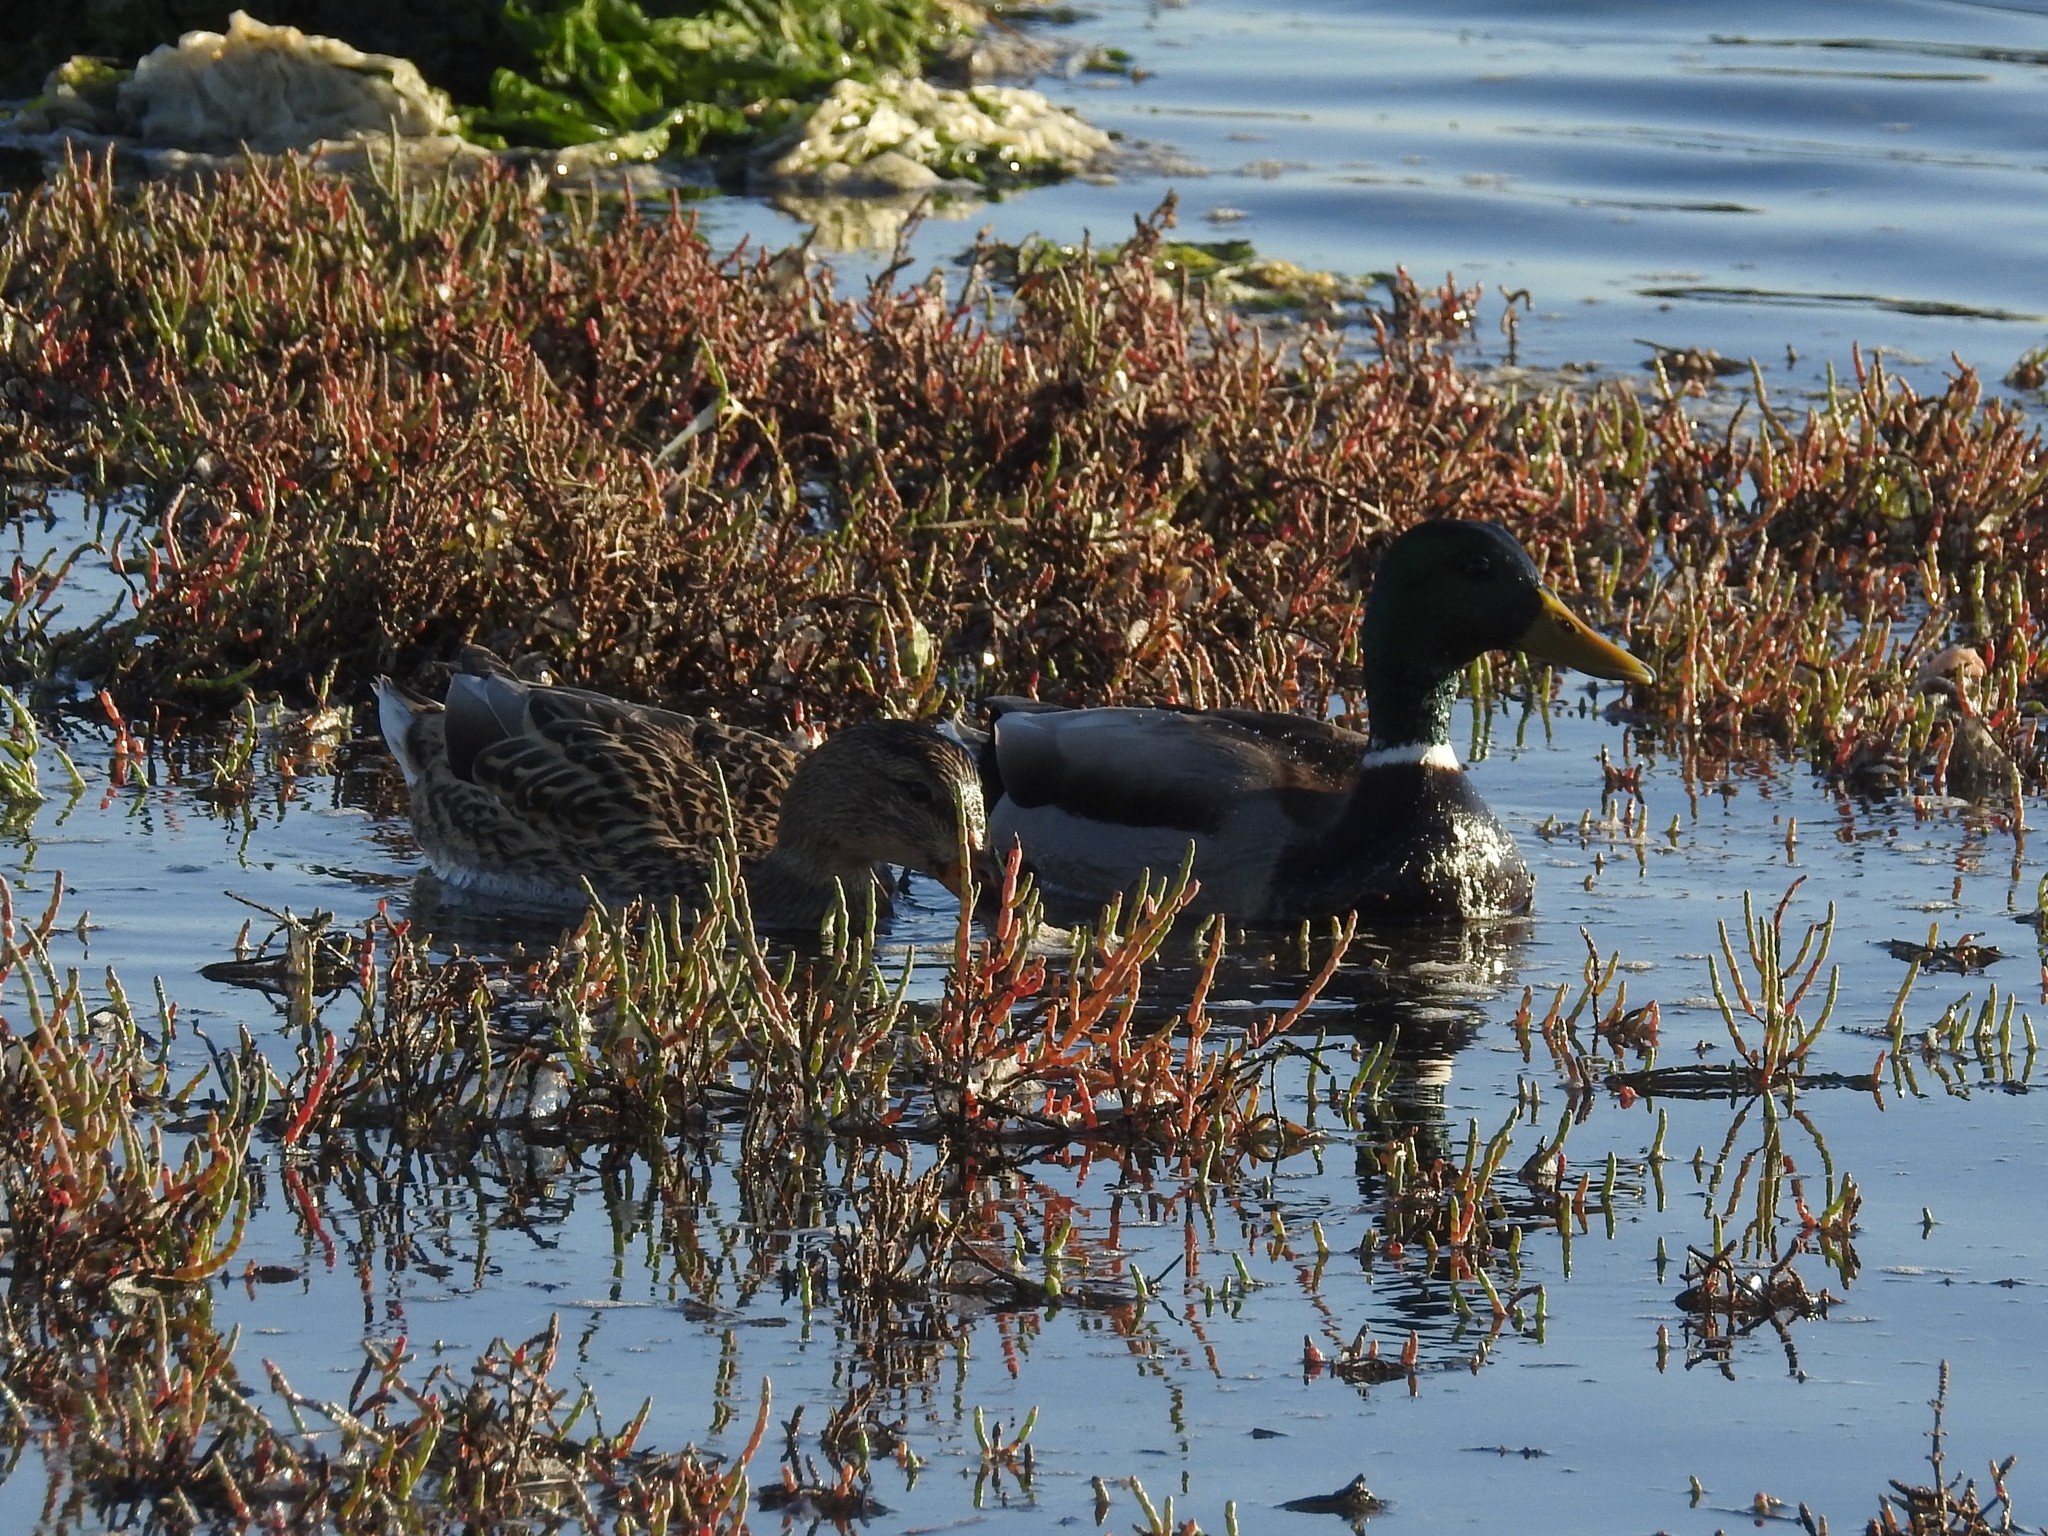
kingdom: Animalia
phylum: Chordata
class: Aves
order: Anseriformes
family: Anatidae
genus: Anas
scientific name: Anas platyrhynchos
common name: Mallard
